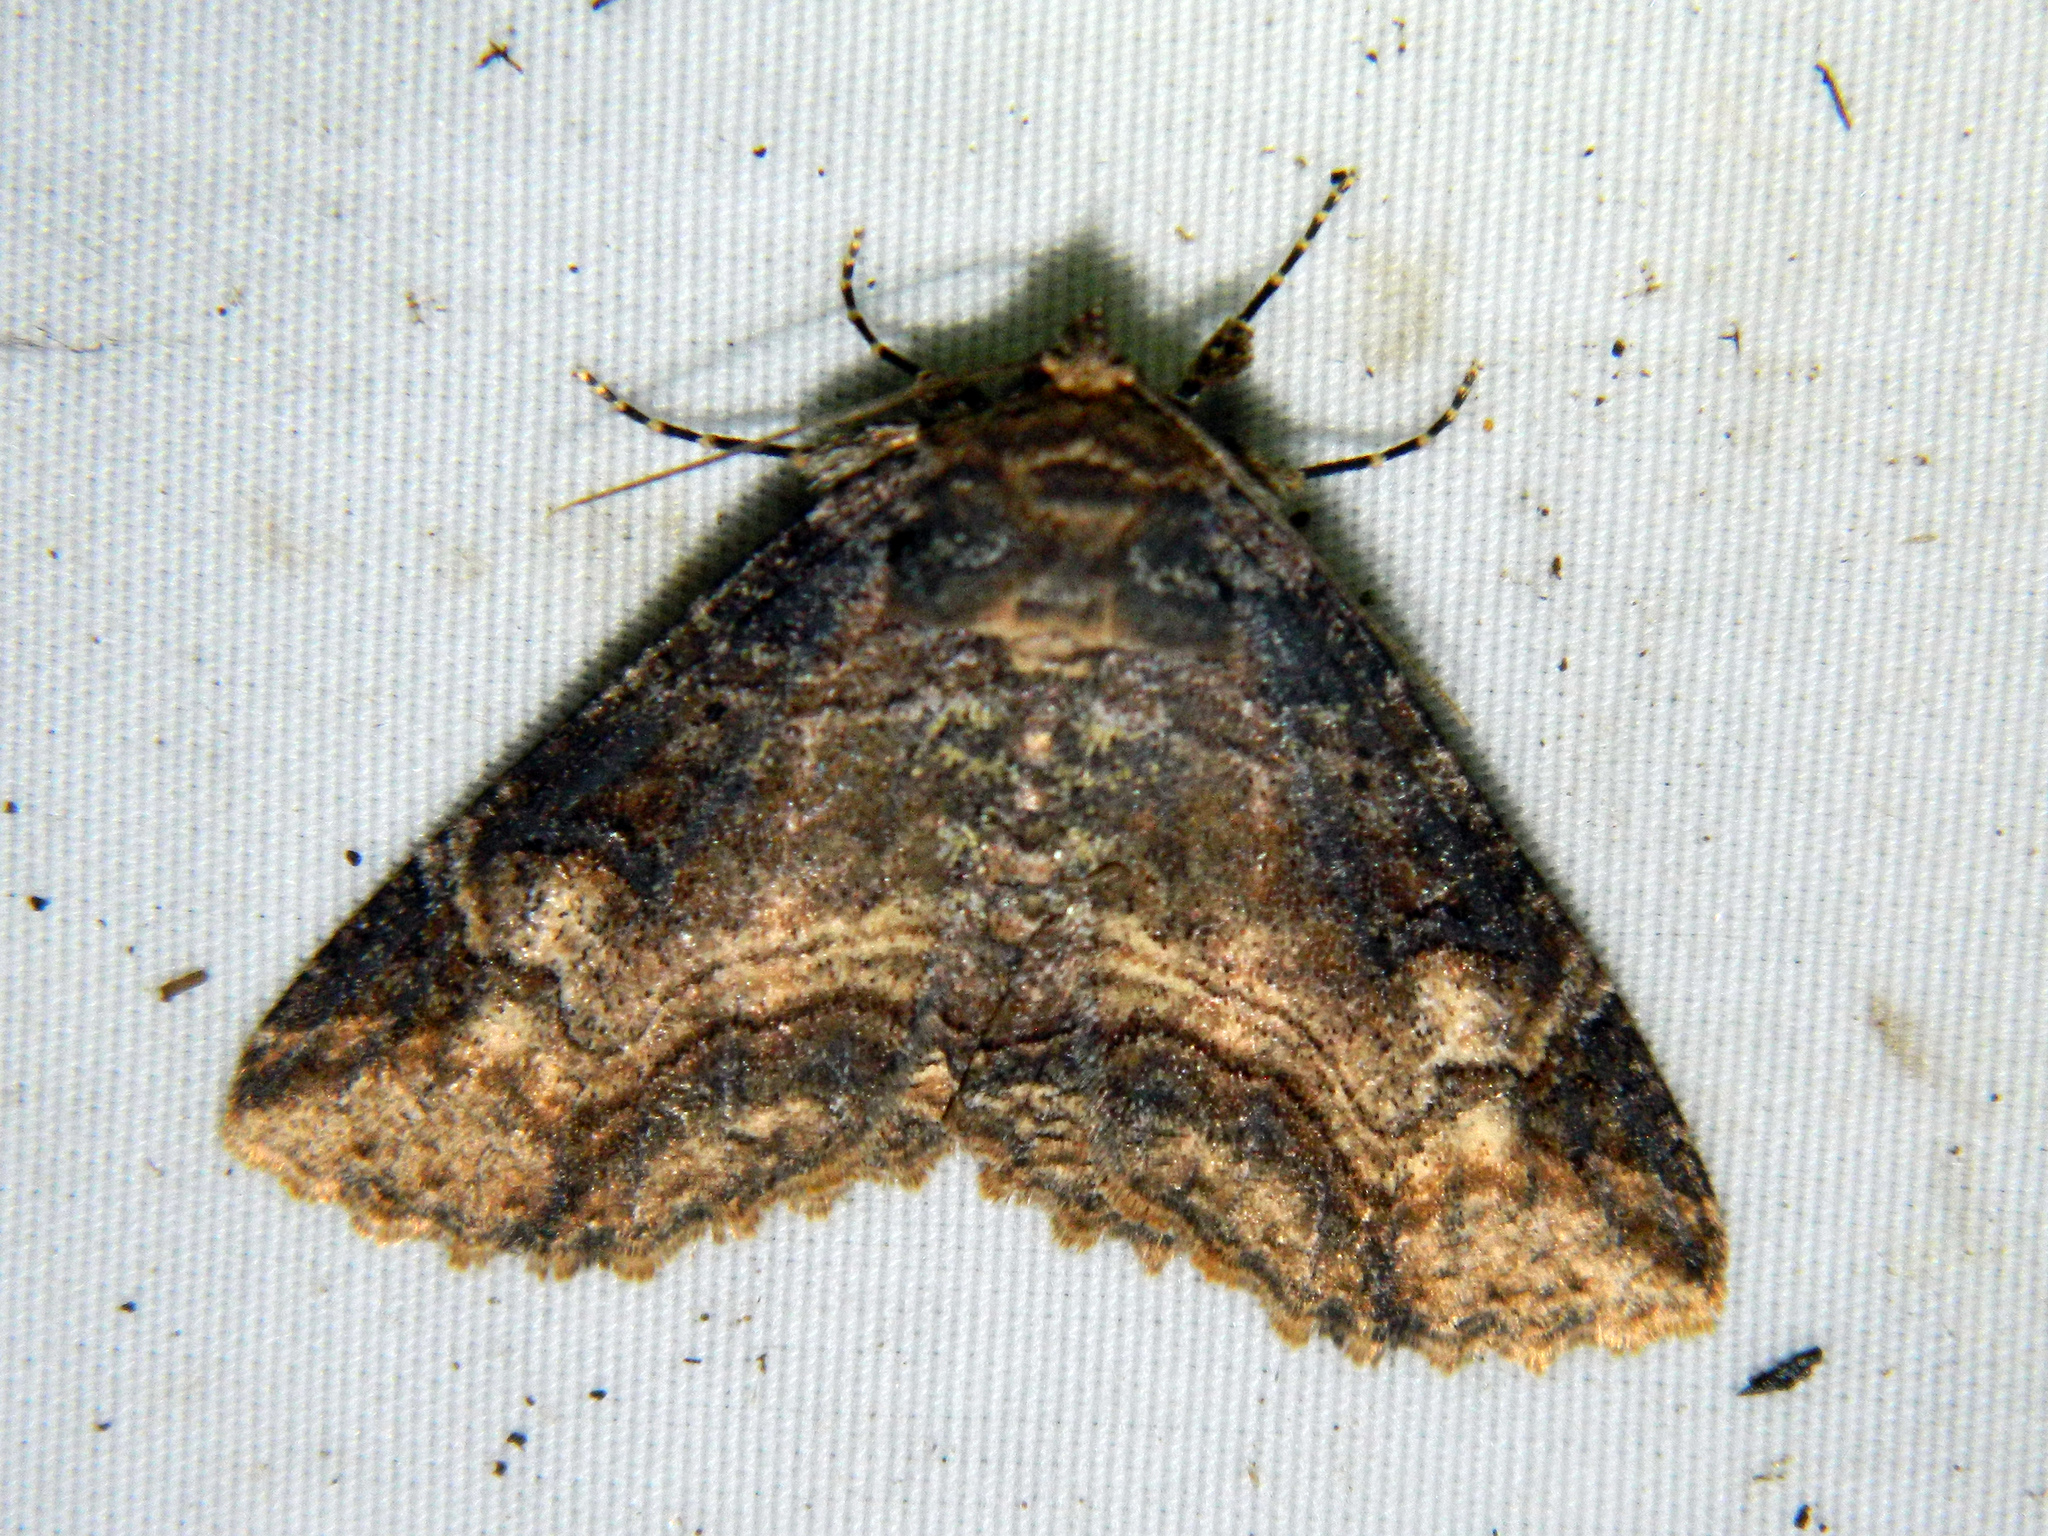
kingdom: Animalia
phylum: Arthropoda
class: Insecta
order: Lepidoptera
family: Erebidae
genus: Zale
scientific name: Zale minerea
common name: Colorful zale moth
